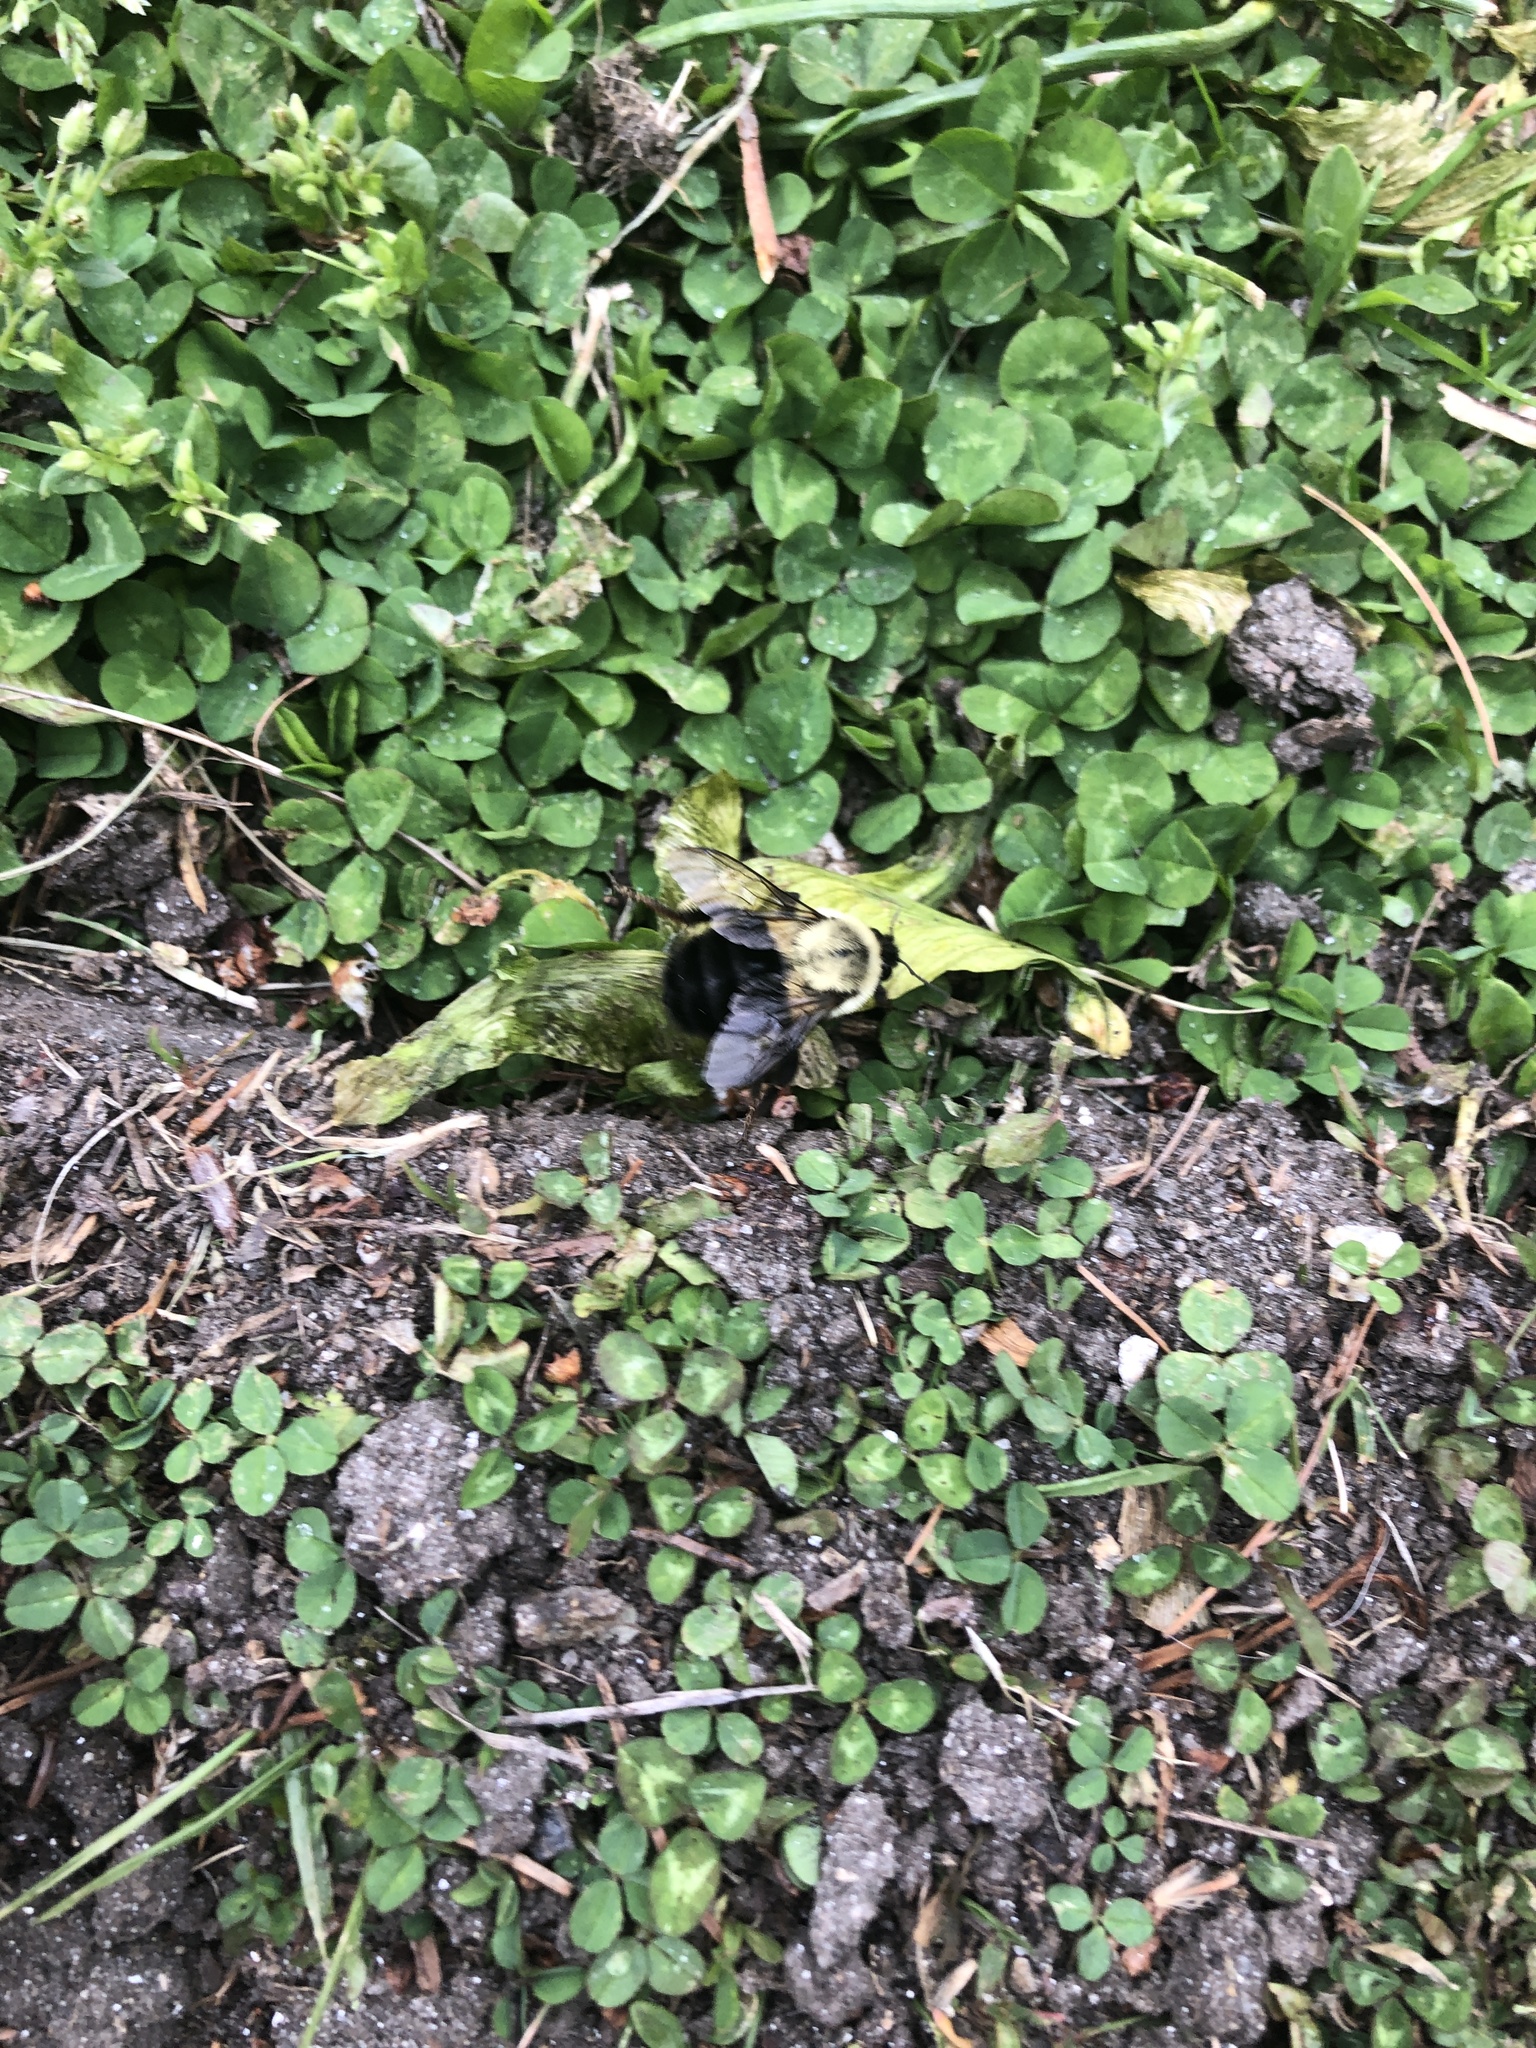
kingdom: Animalia
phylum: Arthropoda
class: Insecta
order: Hymenoptera
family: Apidae
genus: Bombus
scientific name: Bombus impatiens
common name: Common eastern bumble bee
